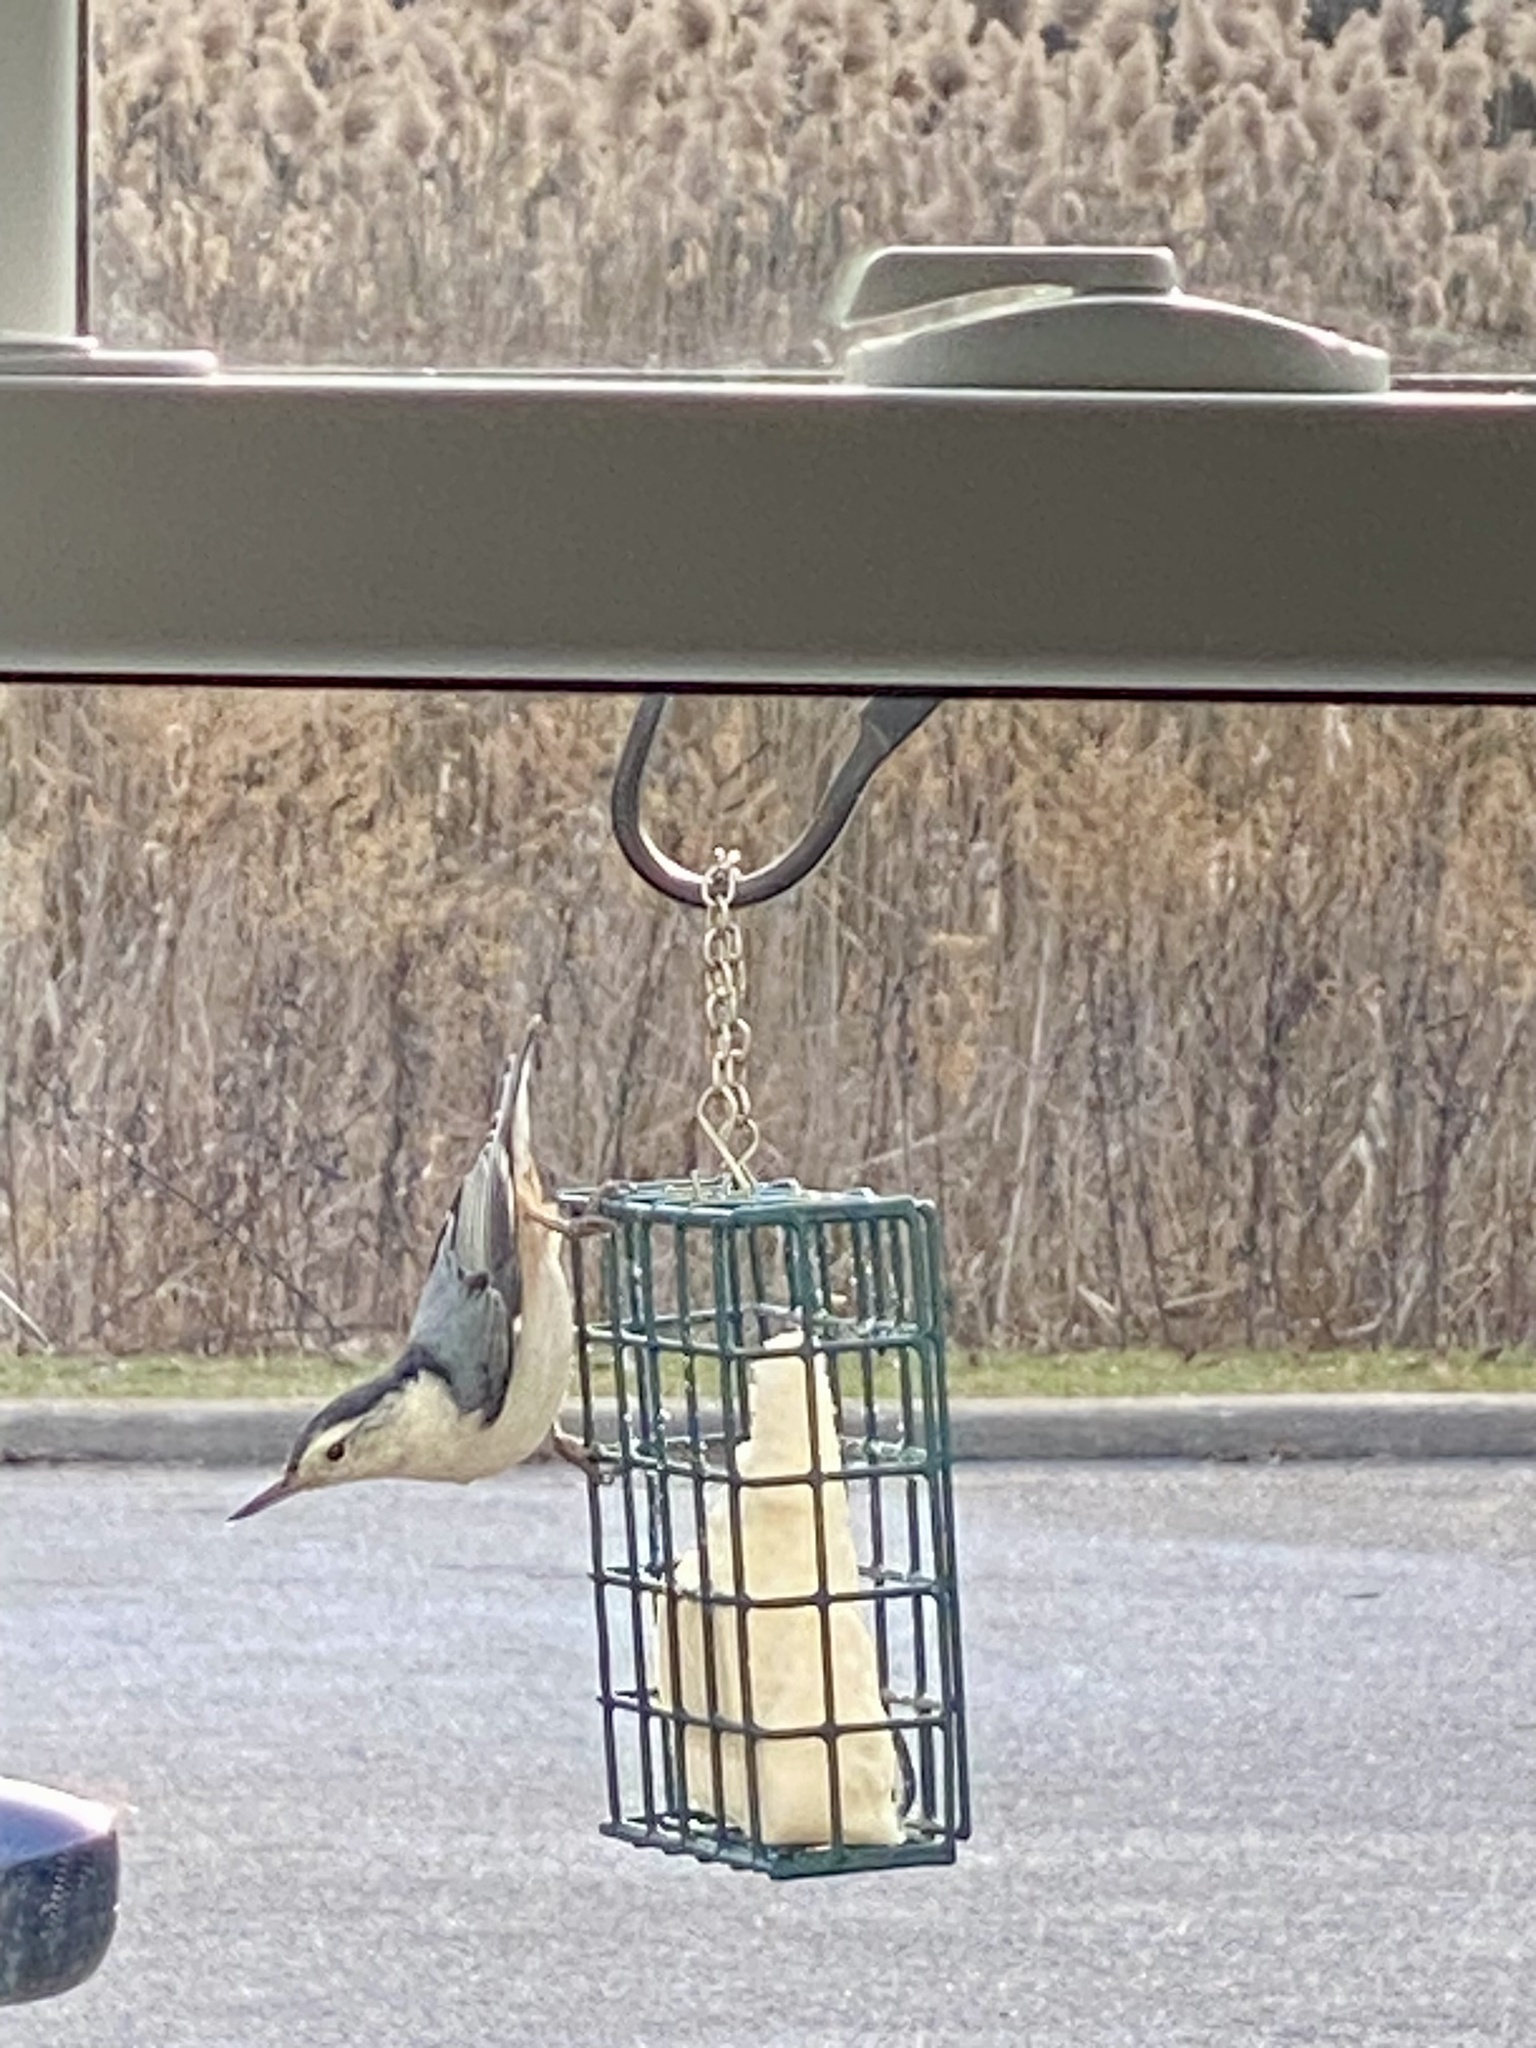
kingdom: Animalia
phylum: Chordata
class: Aves
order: Passeriformes
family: Sittidae
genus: Sitta
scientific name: Sitta carolinensis
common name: White-breasted nuthatch
